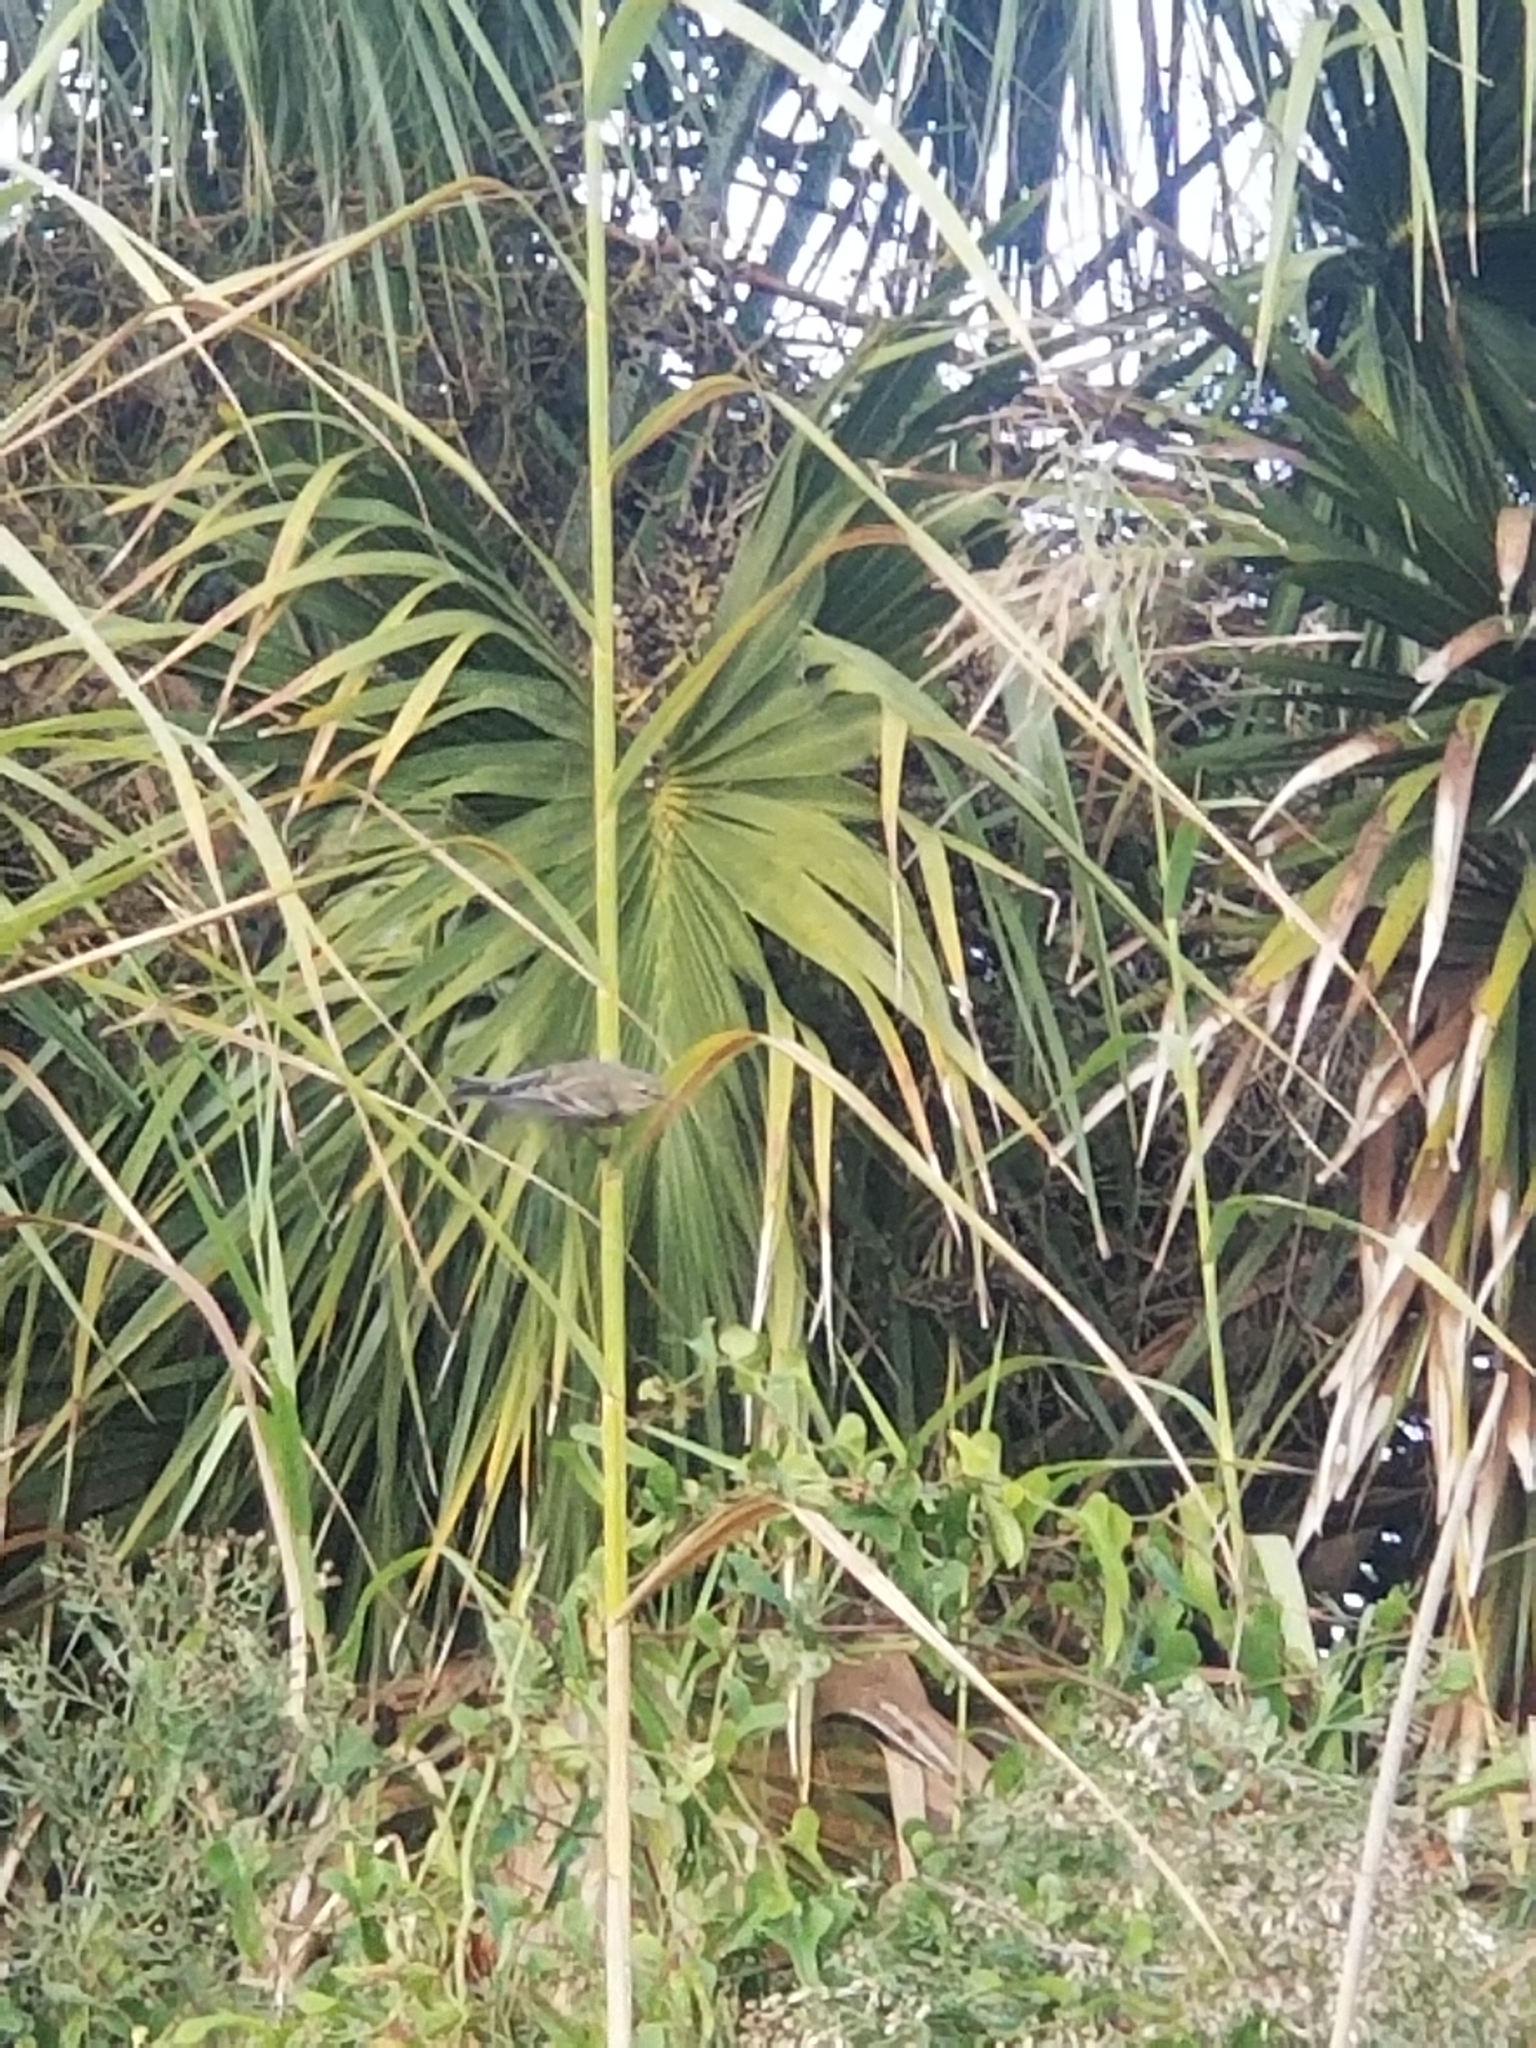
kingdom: Animalia
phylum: Chordata
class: Aves
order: Passeriformes
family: Parulidae
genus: Setophaga
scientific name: Setophaga coronata
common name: Myrtle warbler
